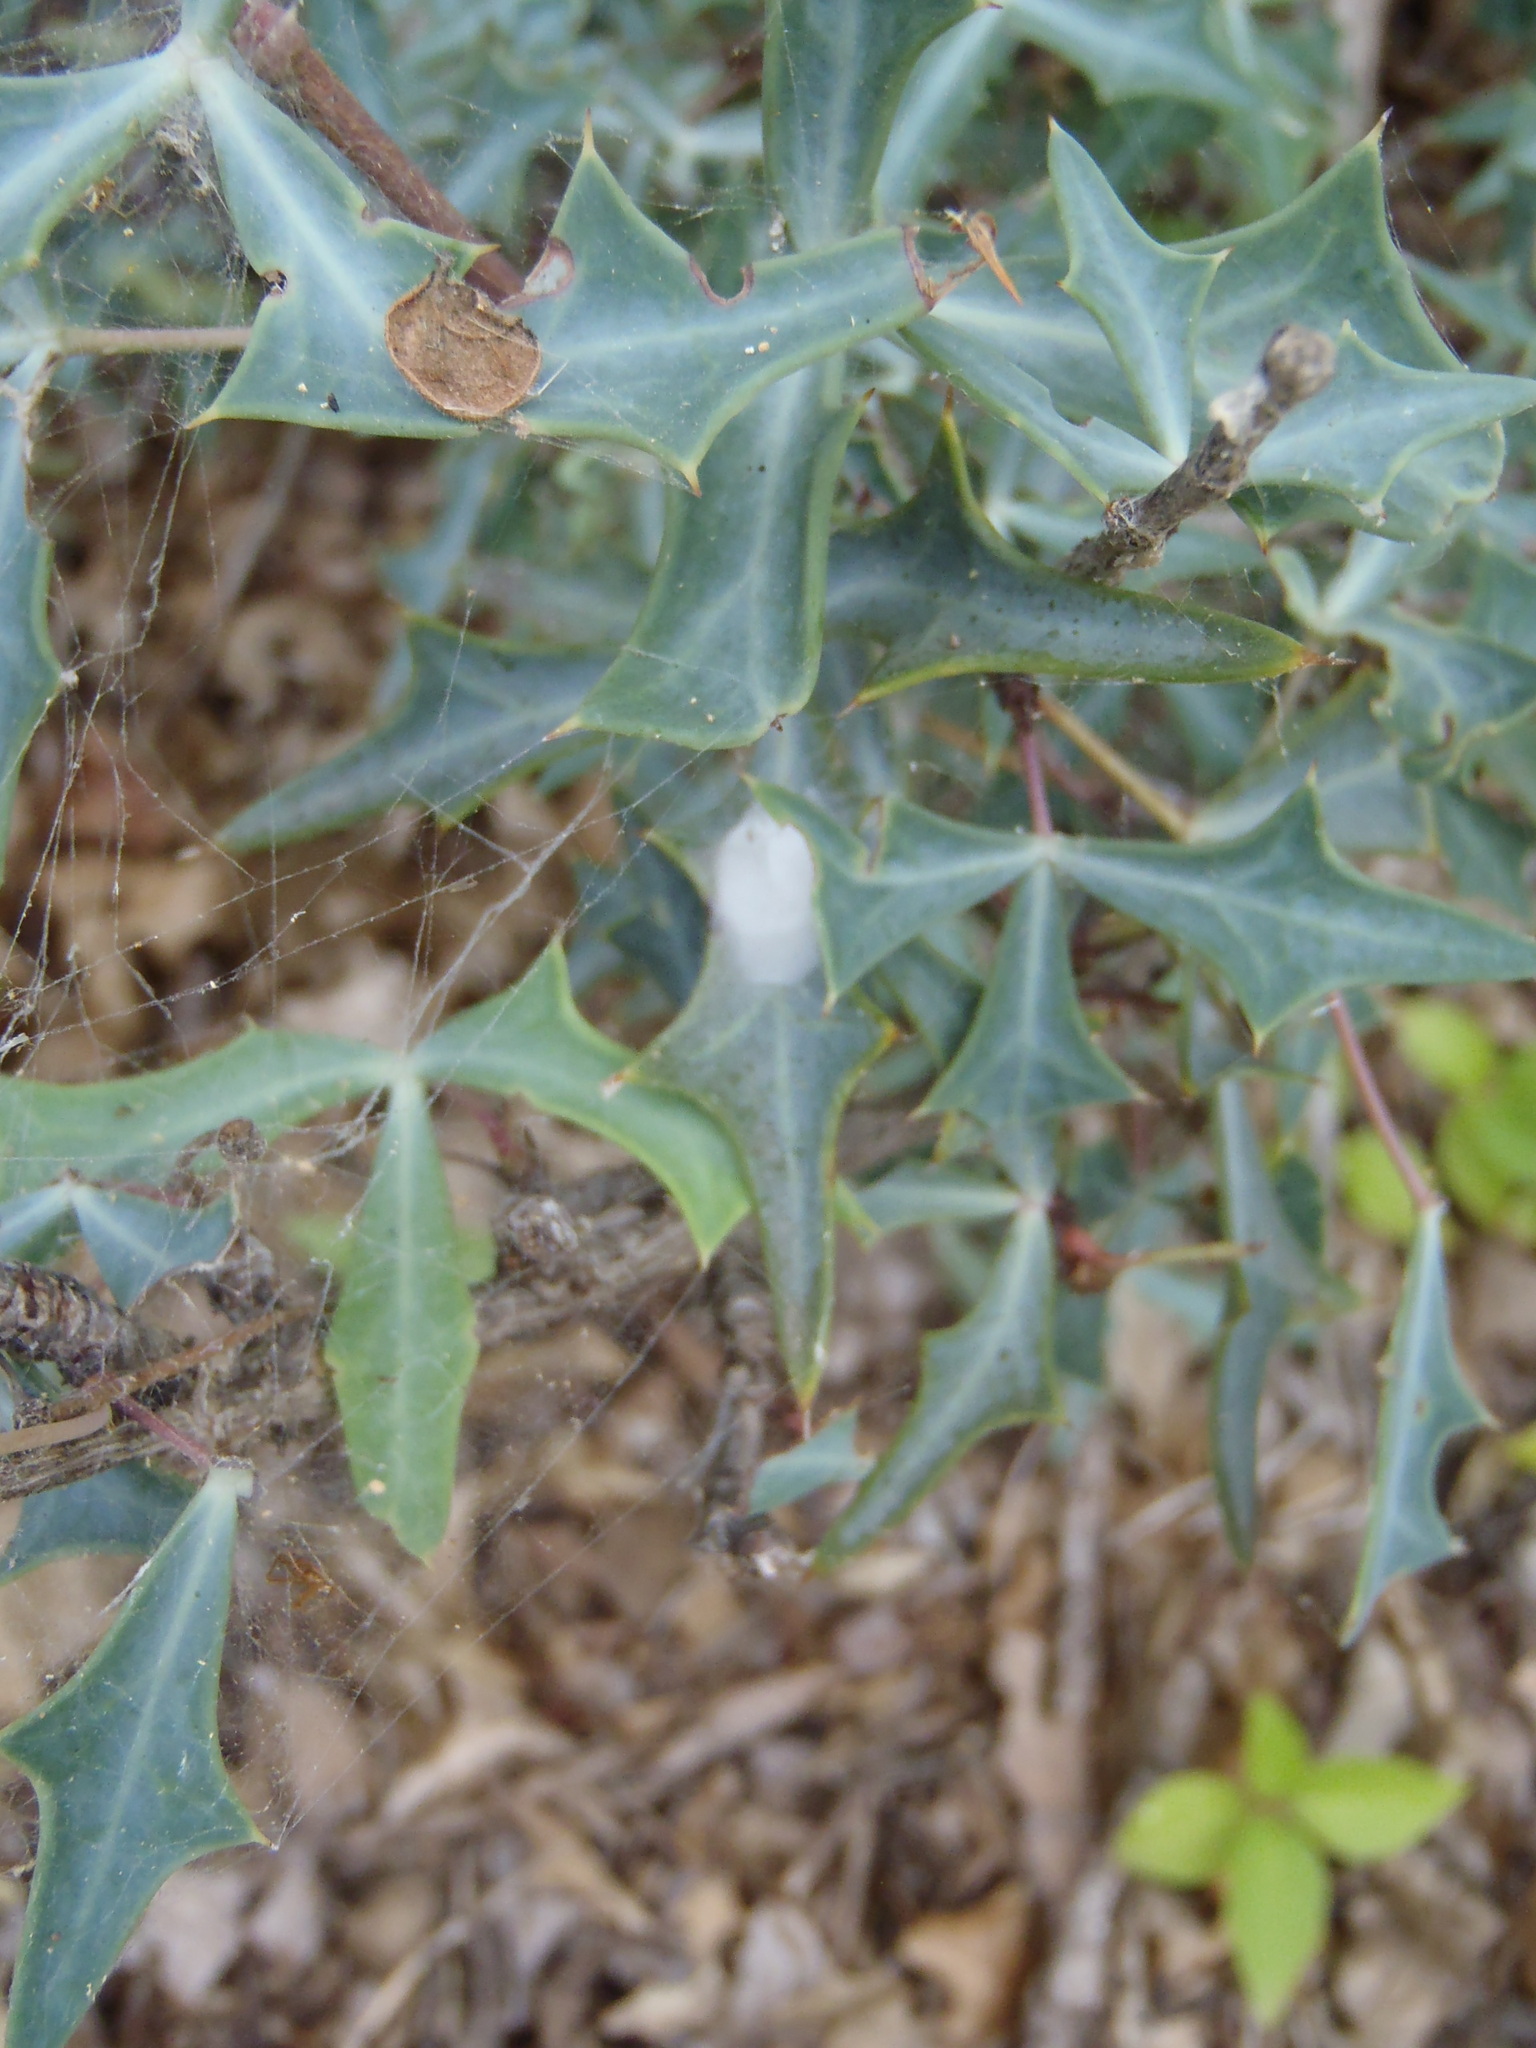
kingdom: Plantae
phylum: Tracheophyta
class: Magnoliopsida
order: Ranunculales
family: Berberidaceae
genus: Alloberberis
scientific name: Alloberberis trifoliolata
